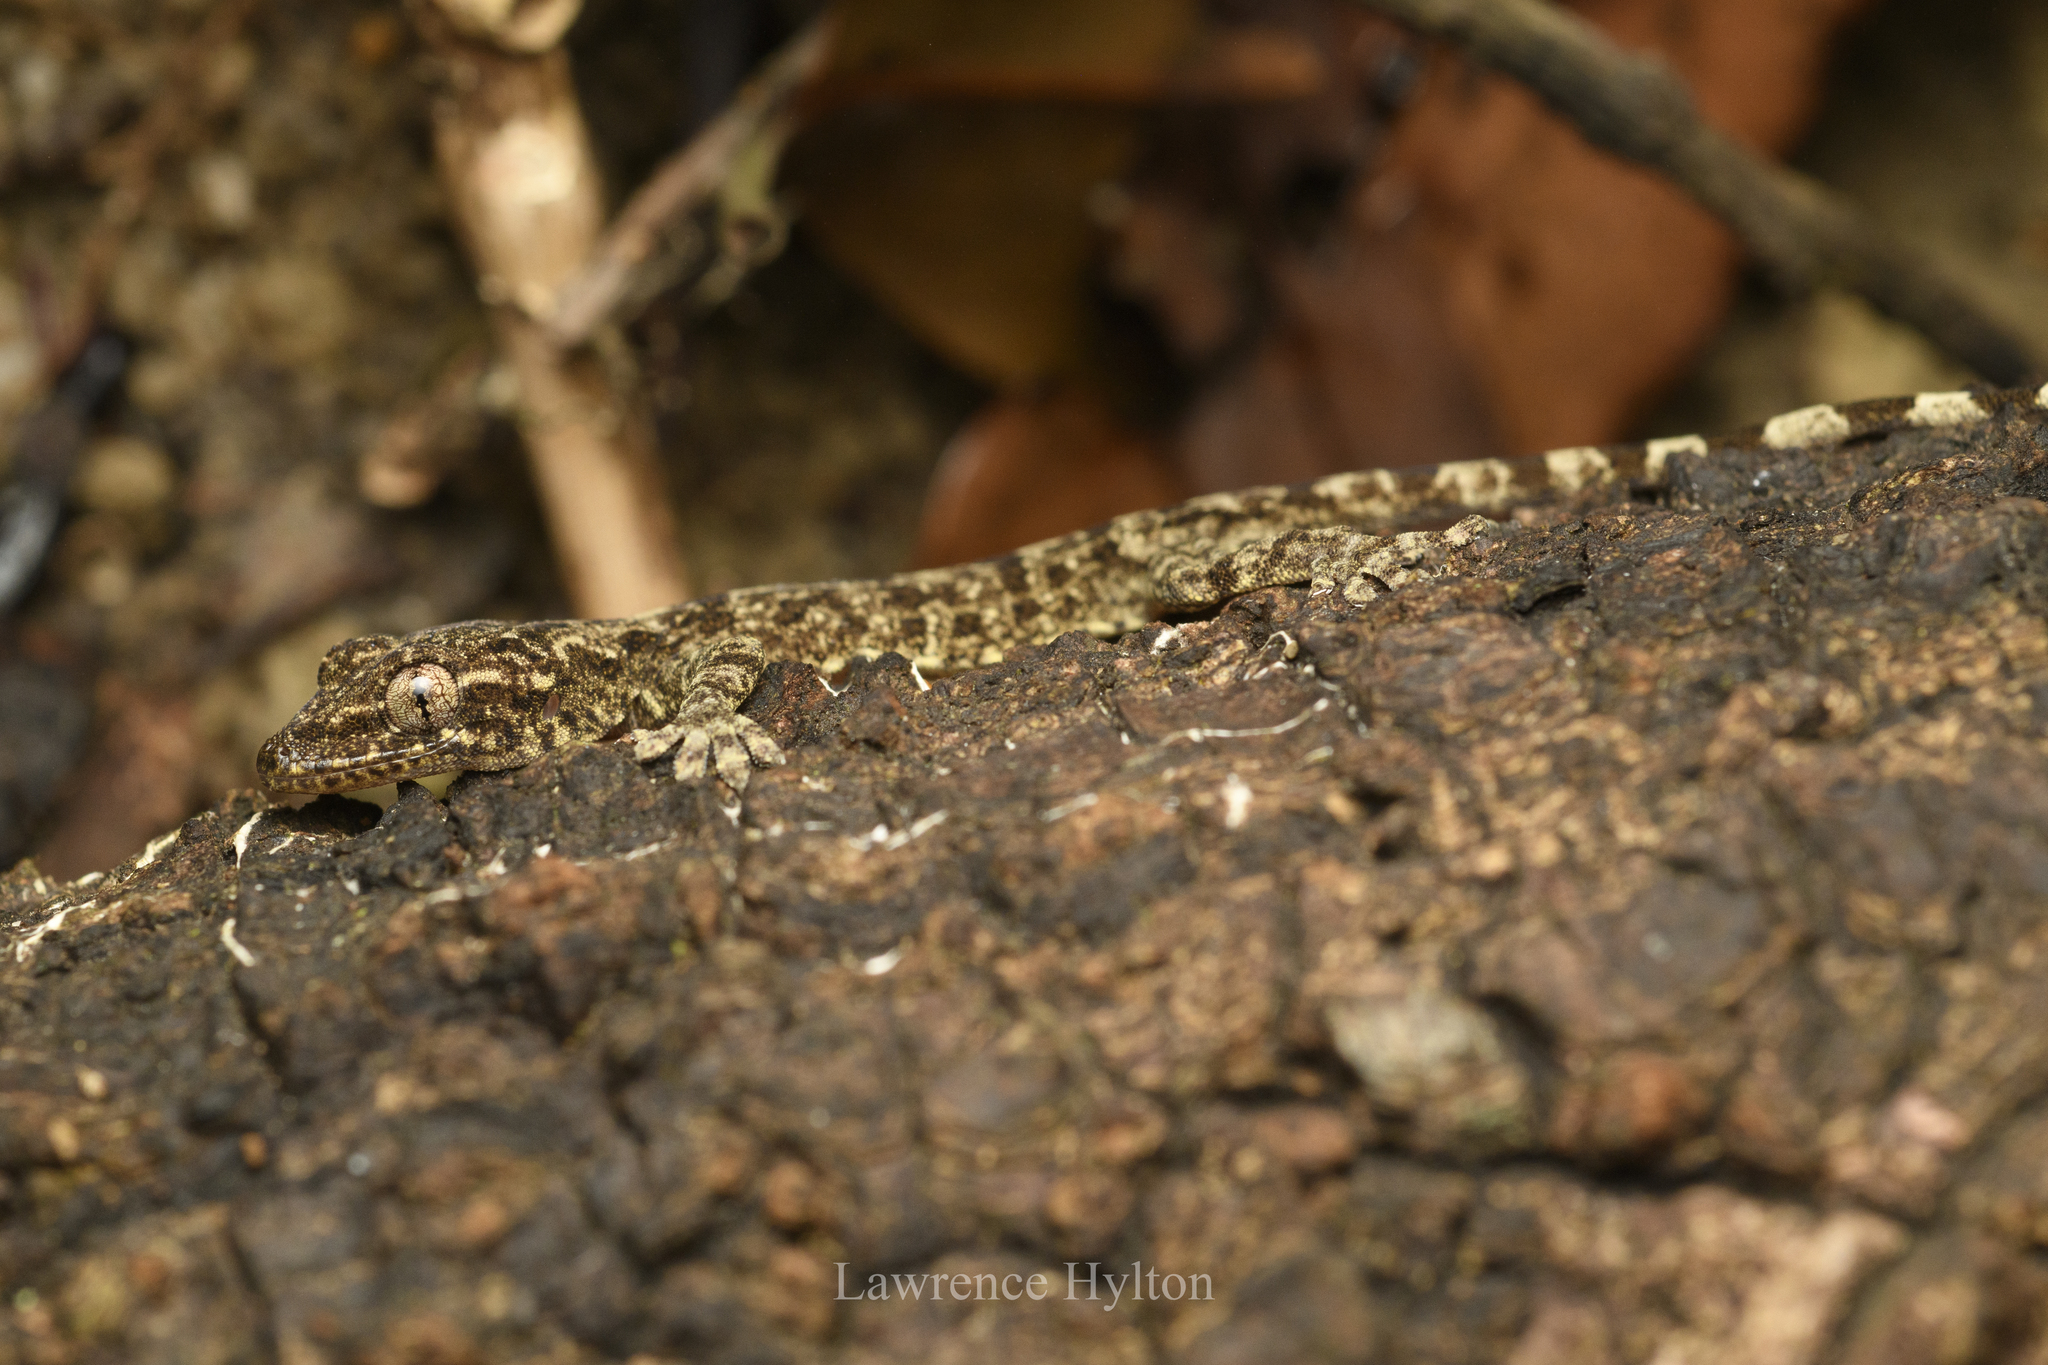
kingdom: Animalia
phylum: Chordata
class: Squamata
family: Gekkonidae
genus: Gekko
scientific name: Gekko chinensis
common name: Gray's chinese gecko
